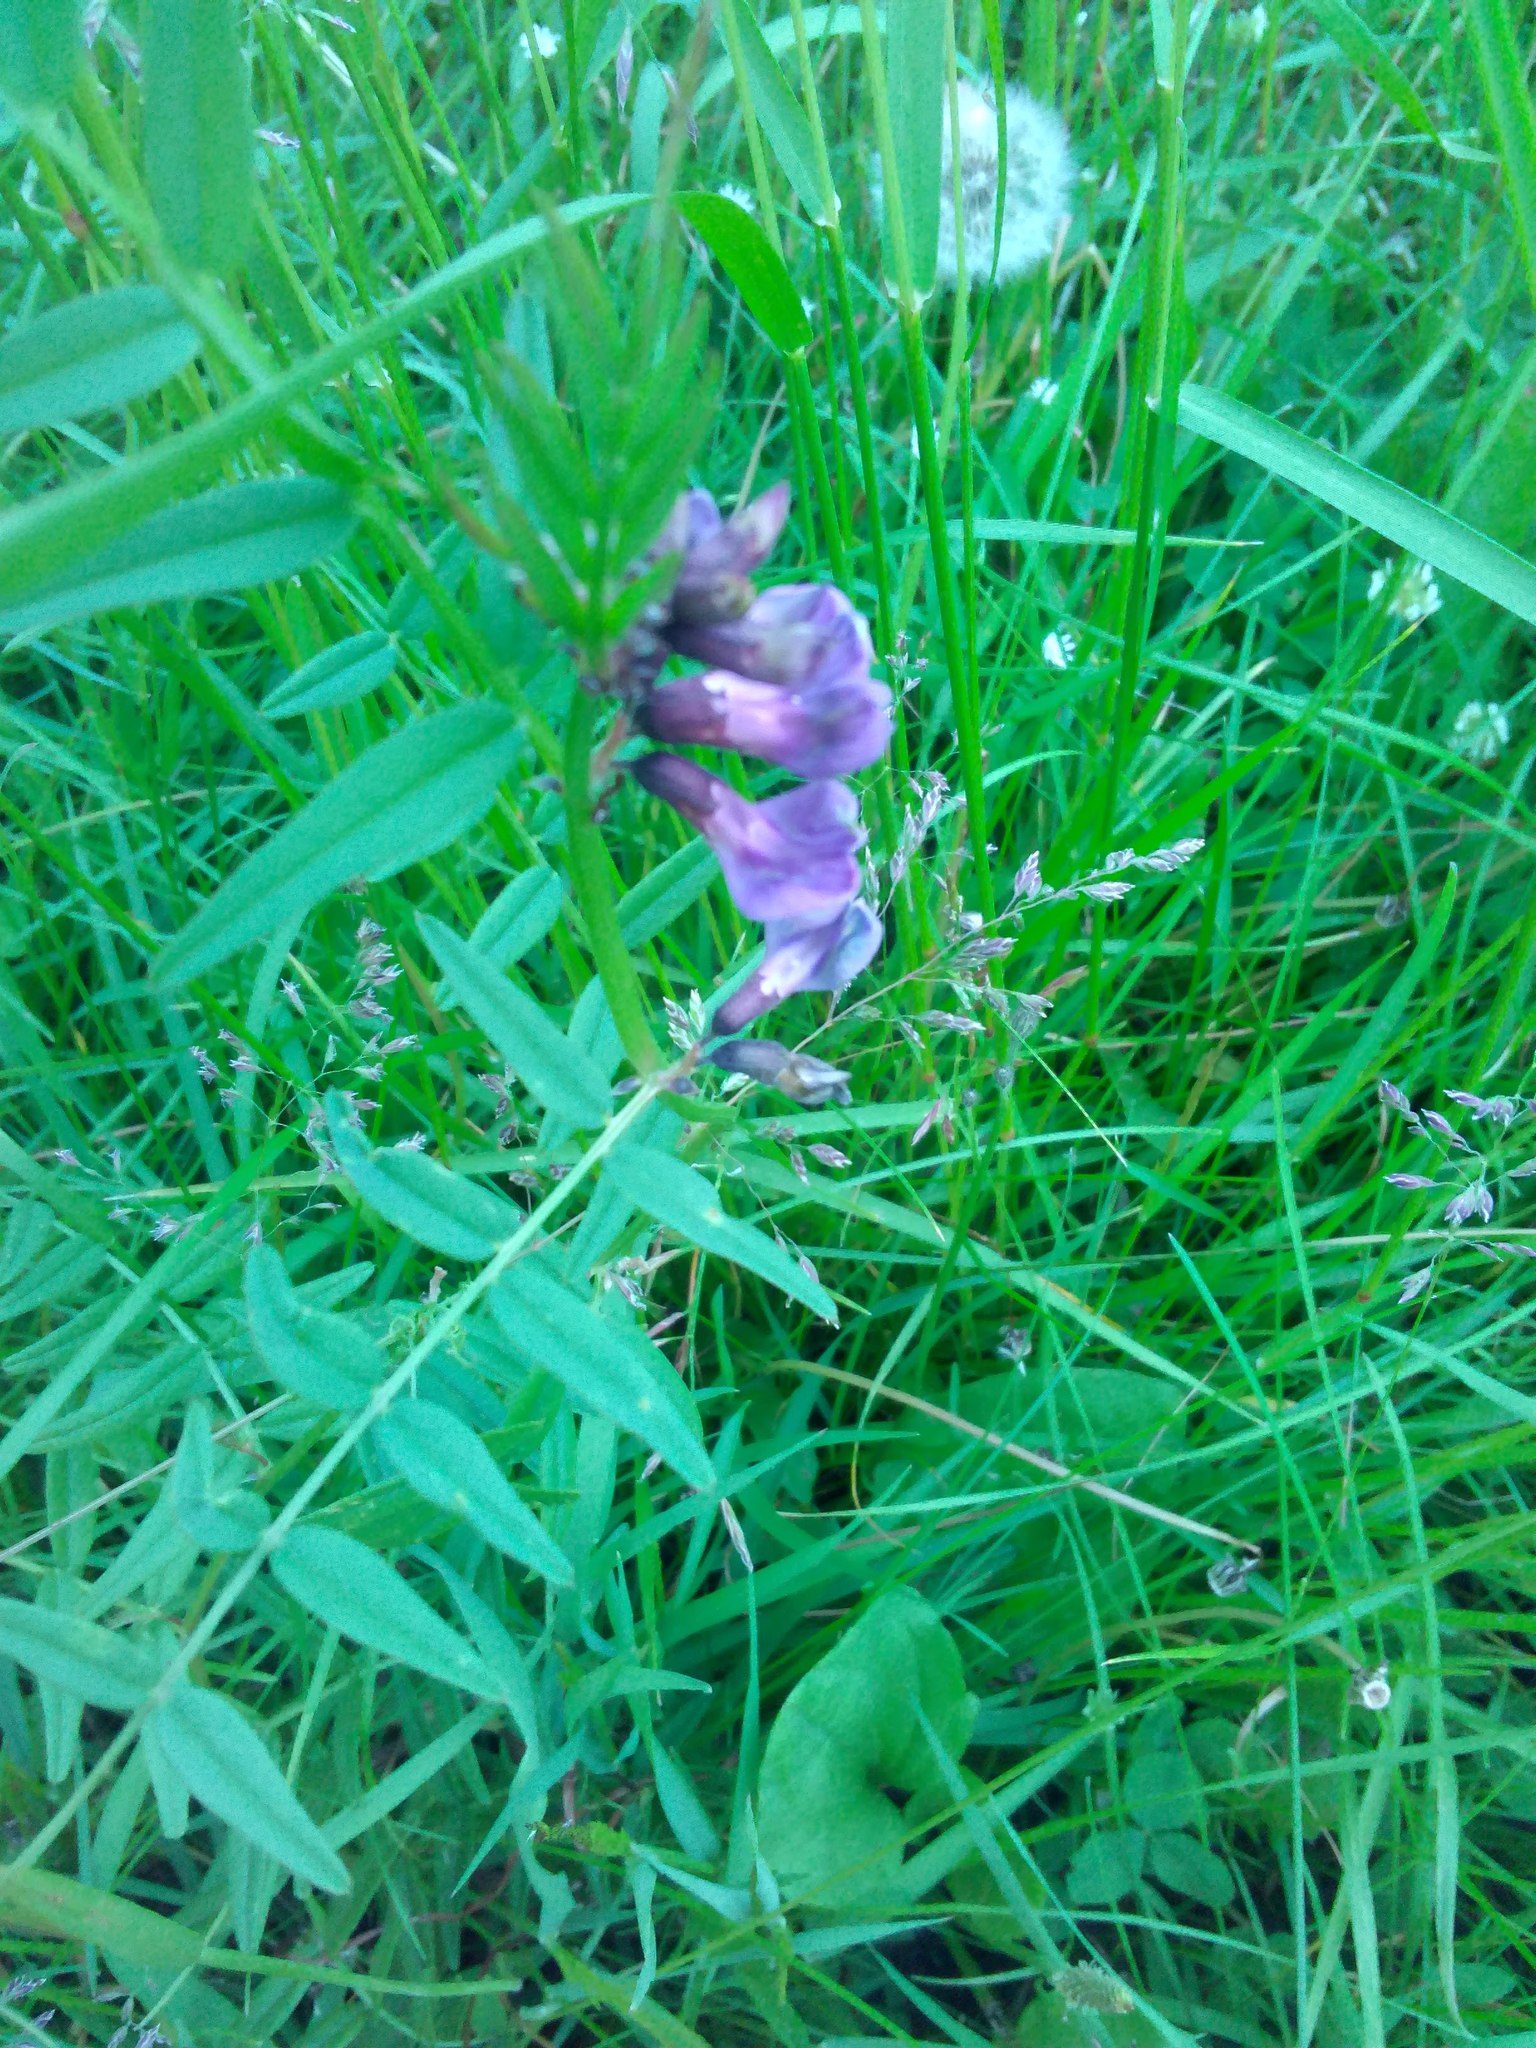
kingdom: Plantae
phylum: Tracheophyta
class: Magnoliopsida
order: Fabales
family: Fabaceae
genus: Vicia
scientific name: Vicia sepium
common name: Bush vetch
